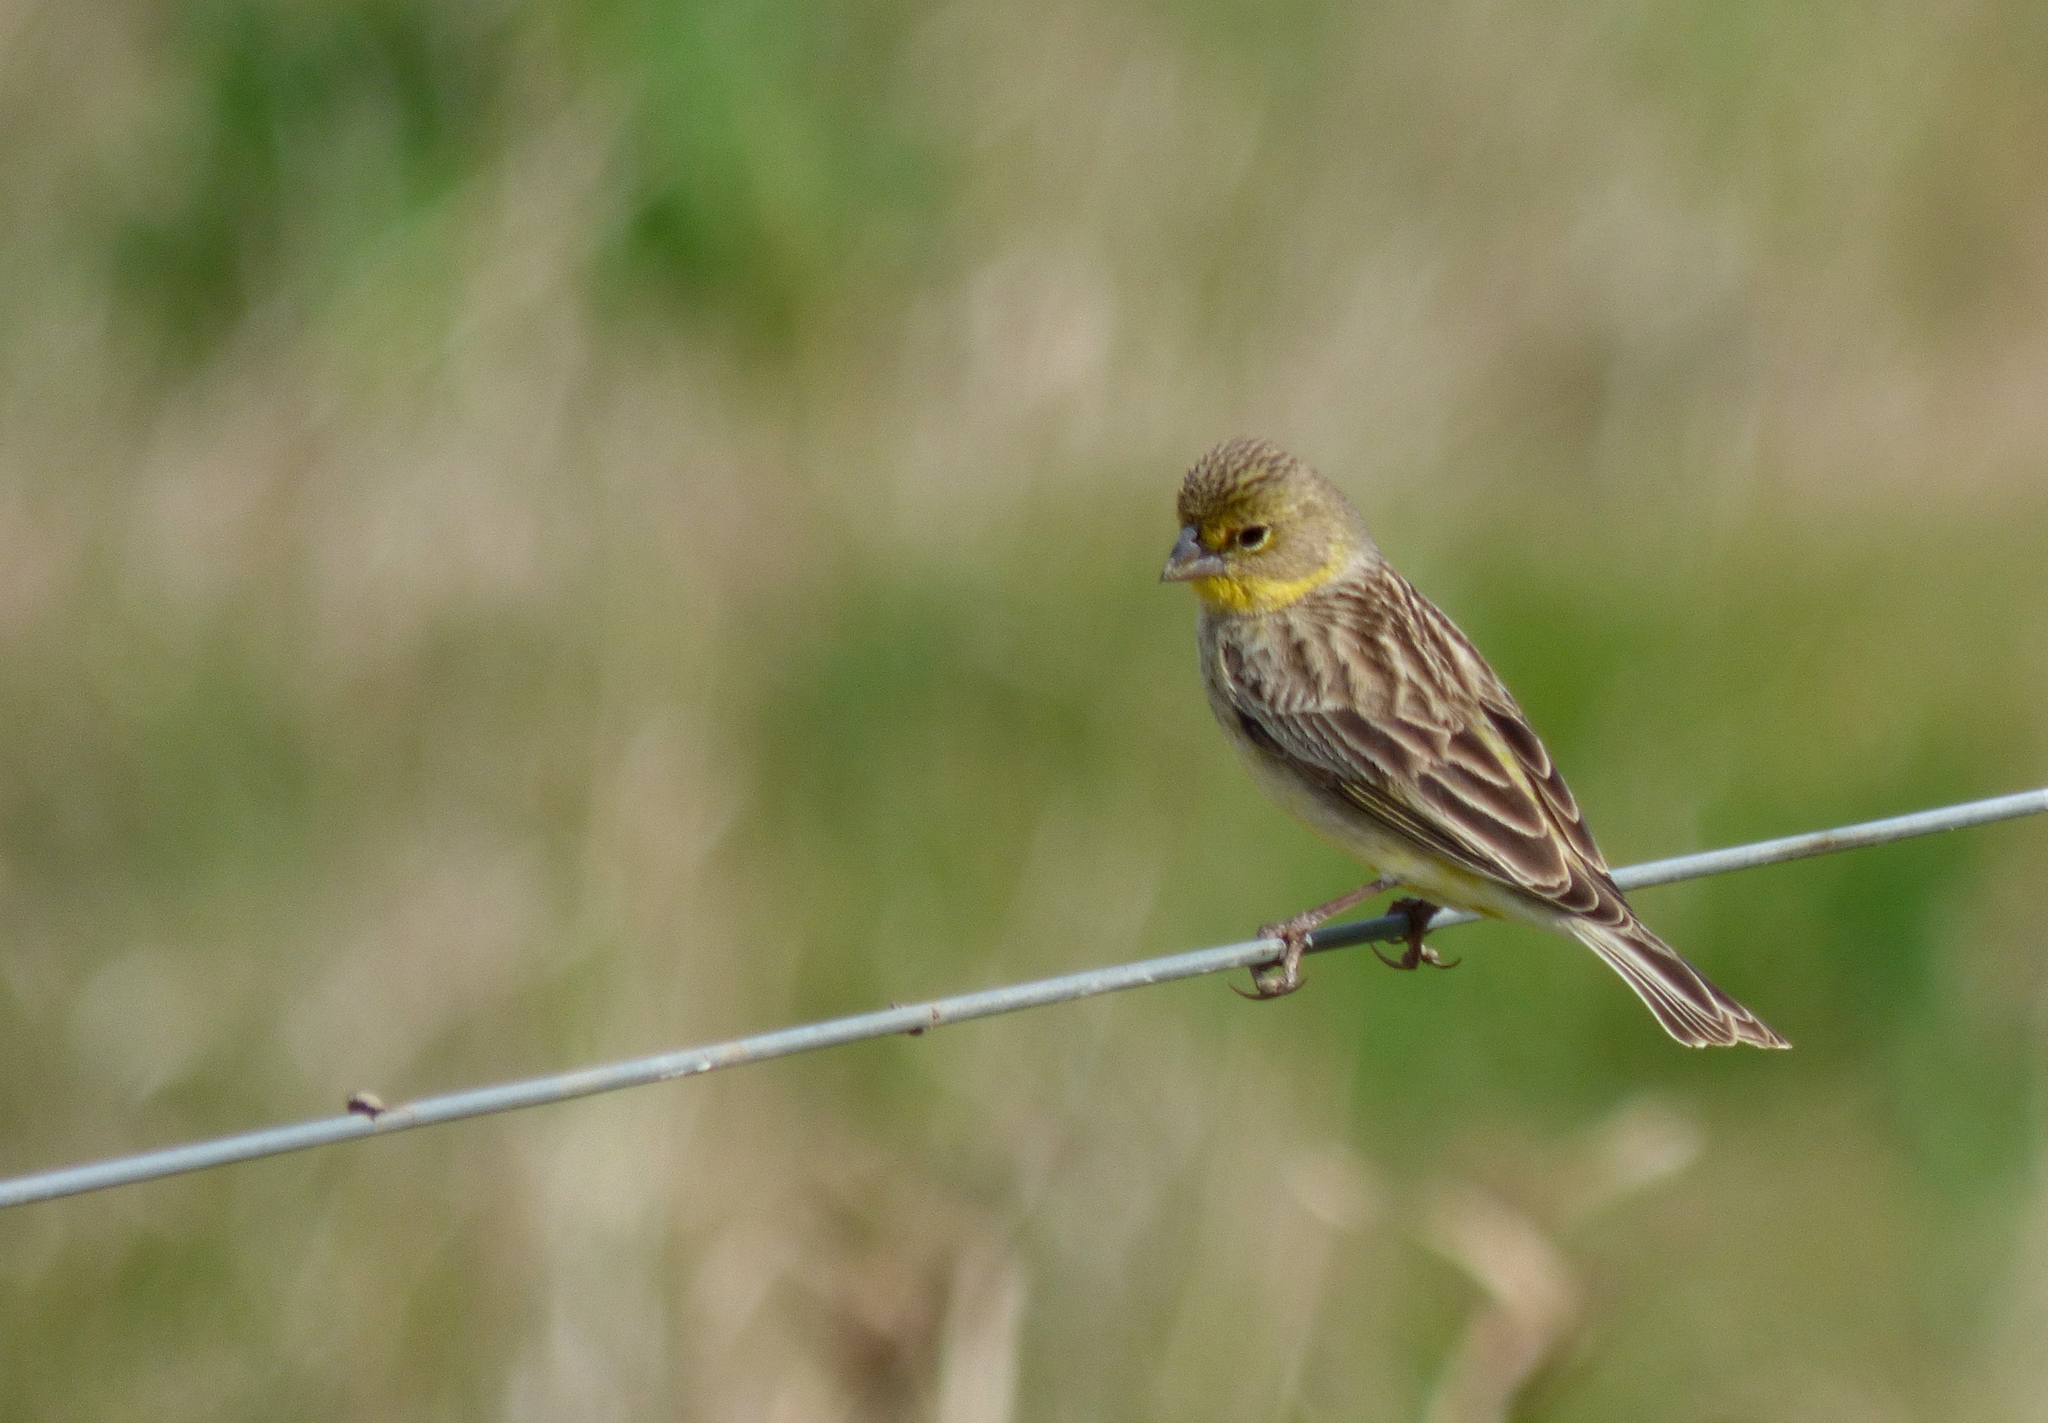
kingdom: Animalia
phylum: Chordata
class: Aves
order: Passeriformes
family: Thraupidae
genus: Sicalis
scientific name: Sicalis luteola
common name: Grassland yellow-finch
